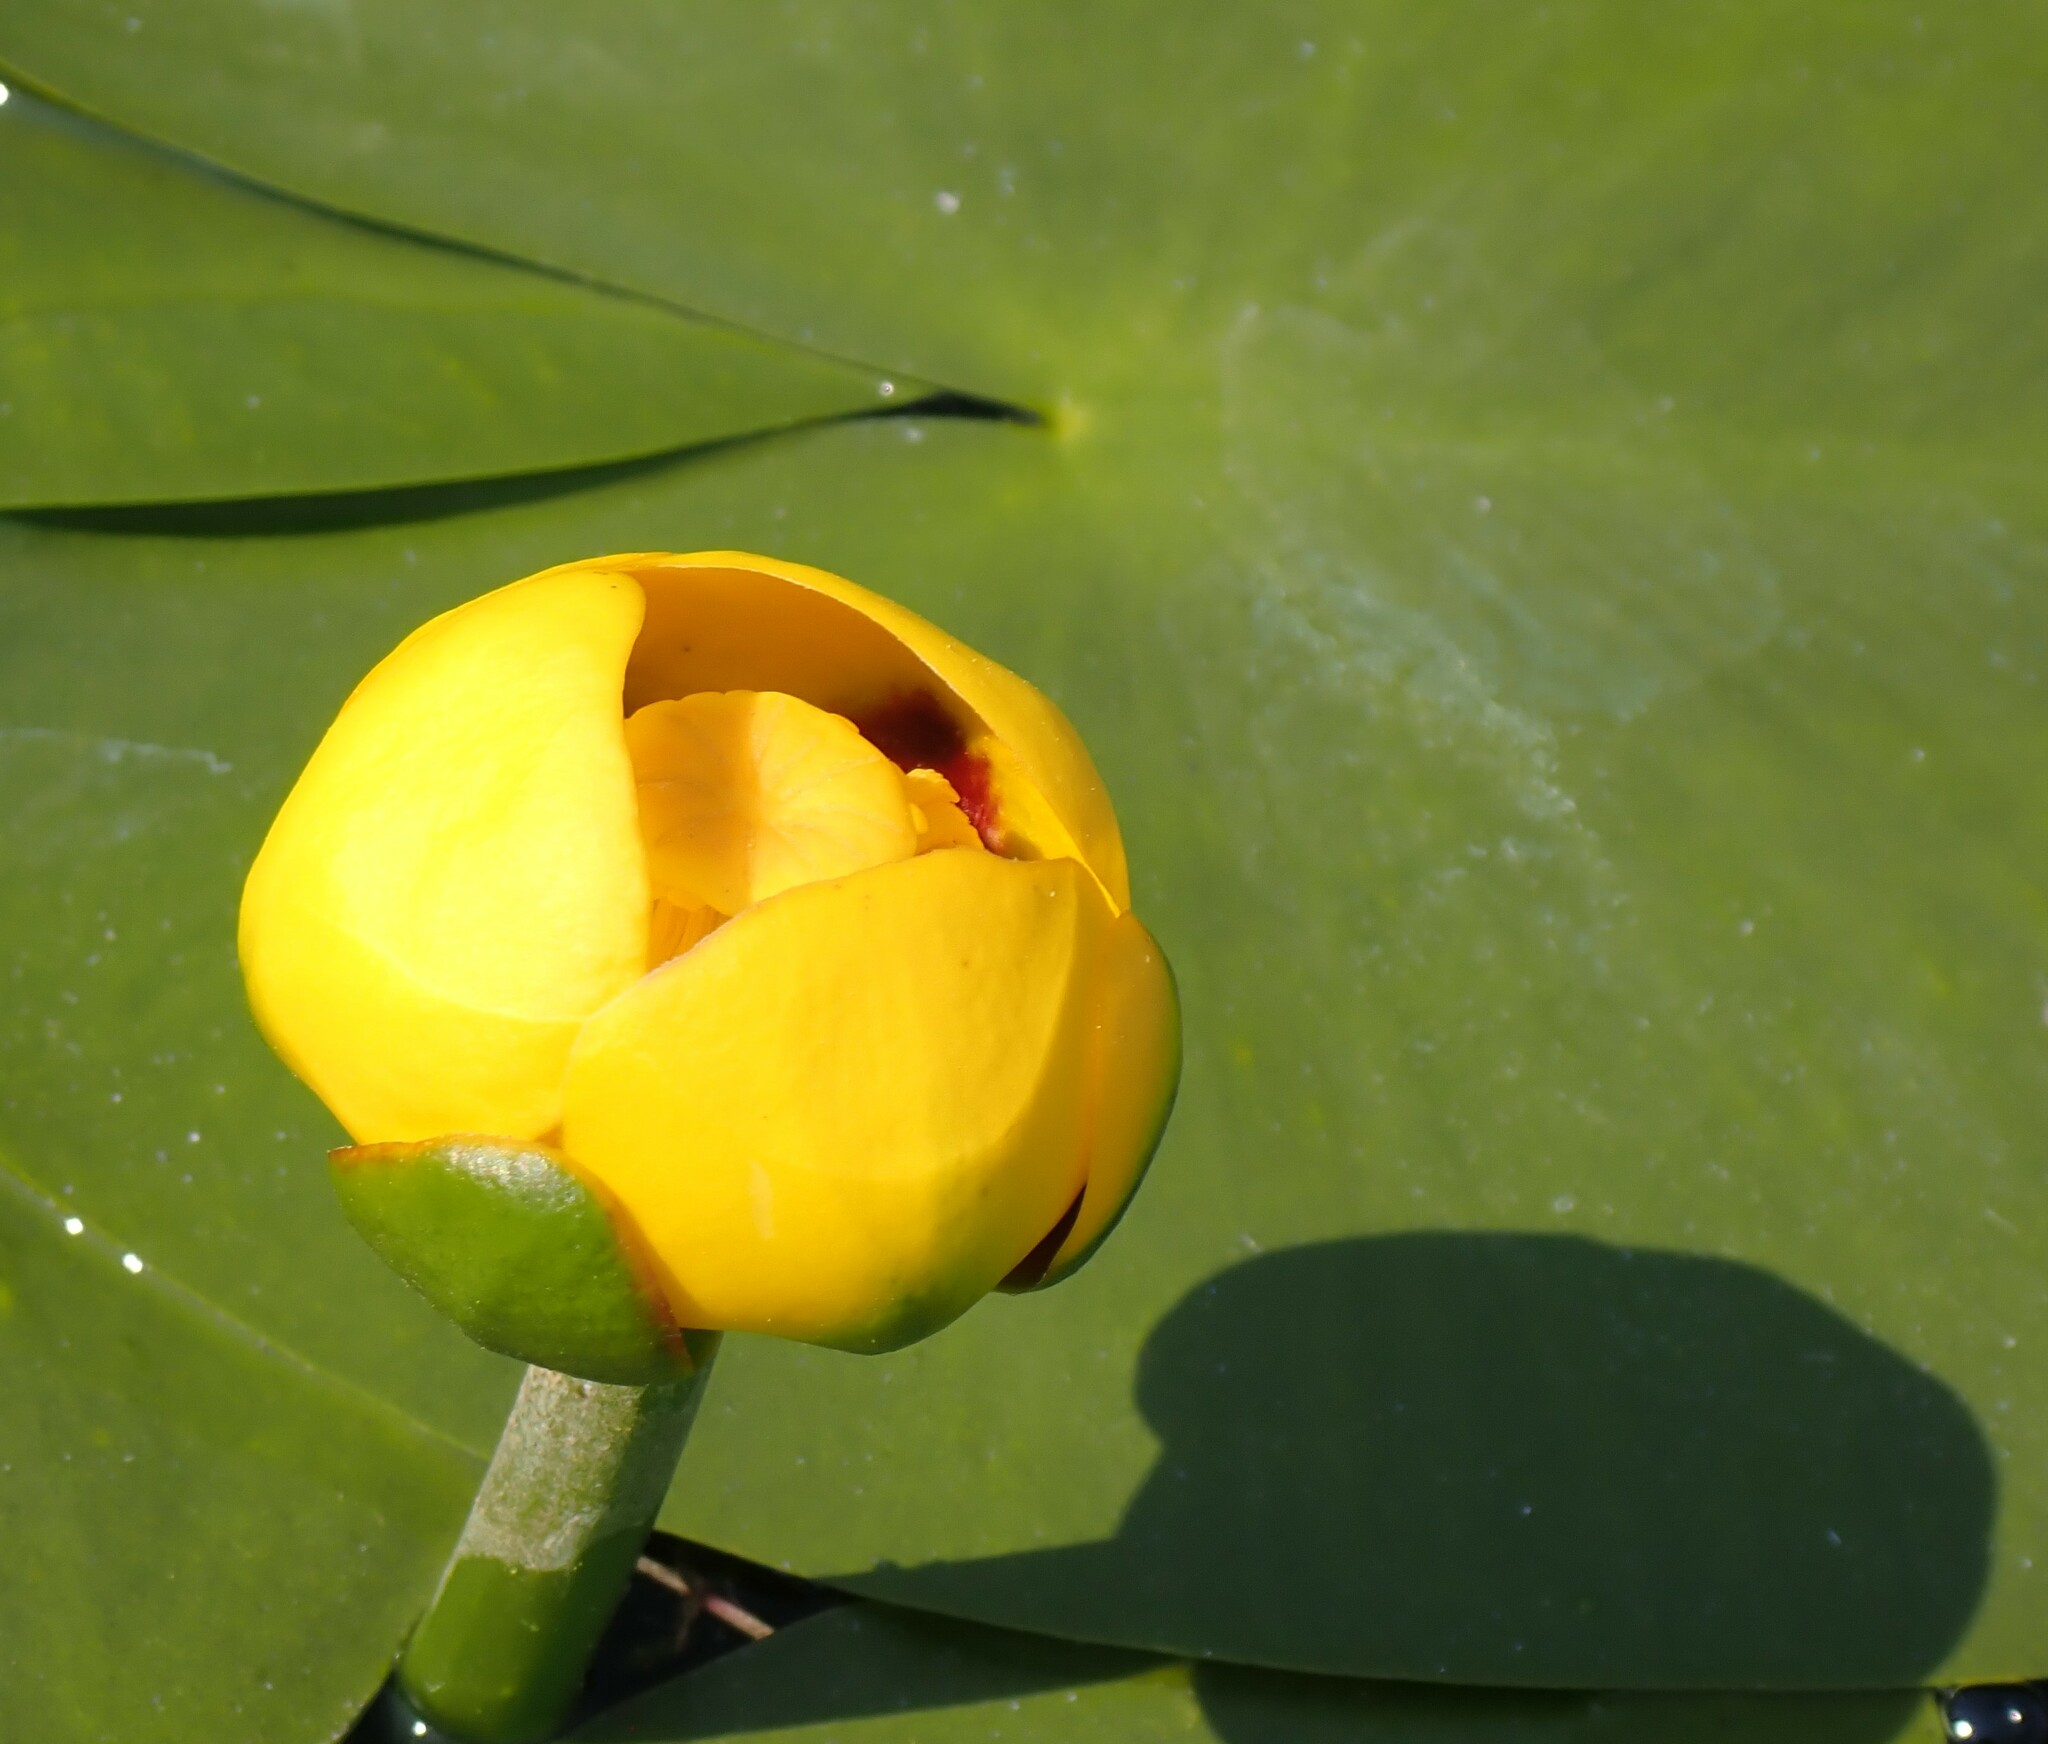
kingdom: Plantae
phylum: Tracheophyta
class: Magnoliopsida
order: Nymphaeales
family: Nymphaeaceae
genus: Nuphar
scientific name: Nuphar variegata
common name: Beaver-root
